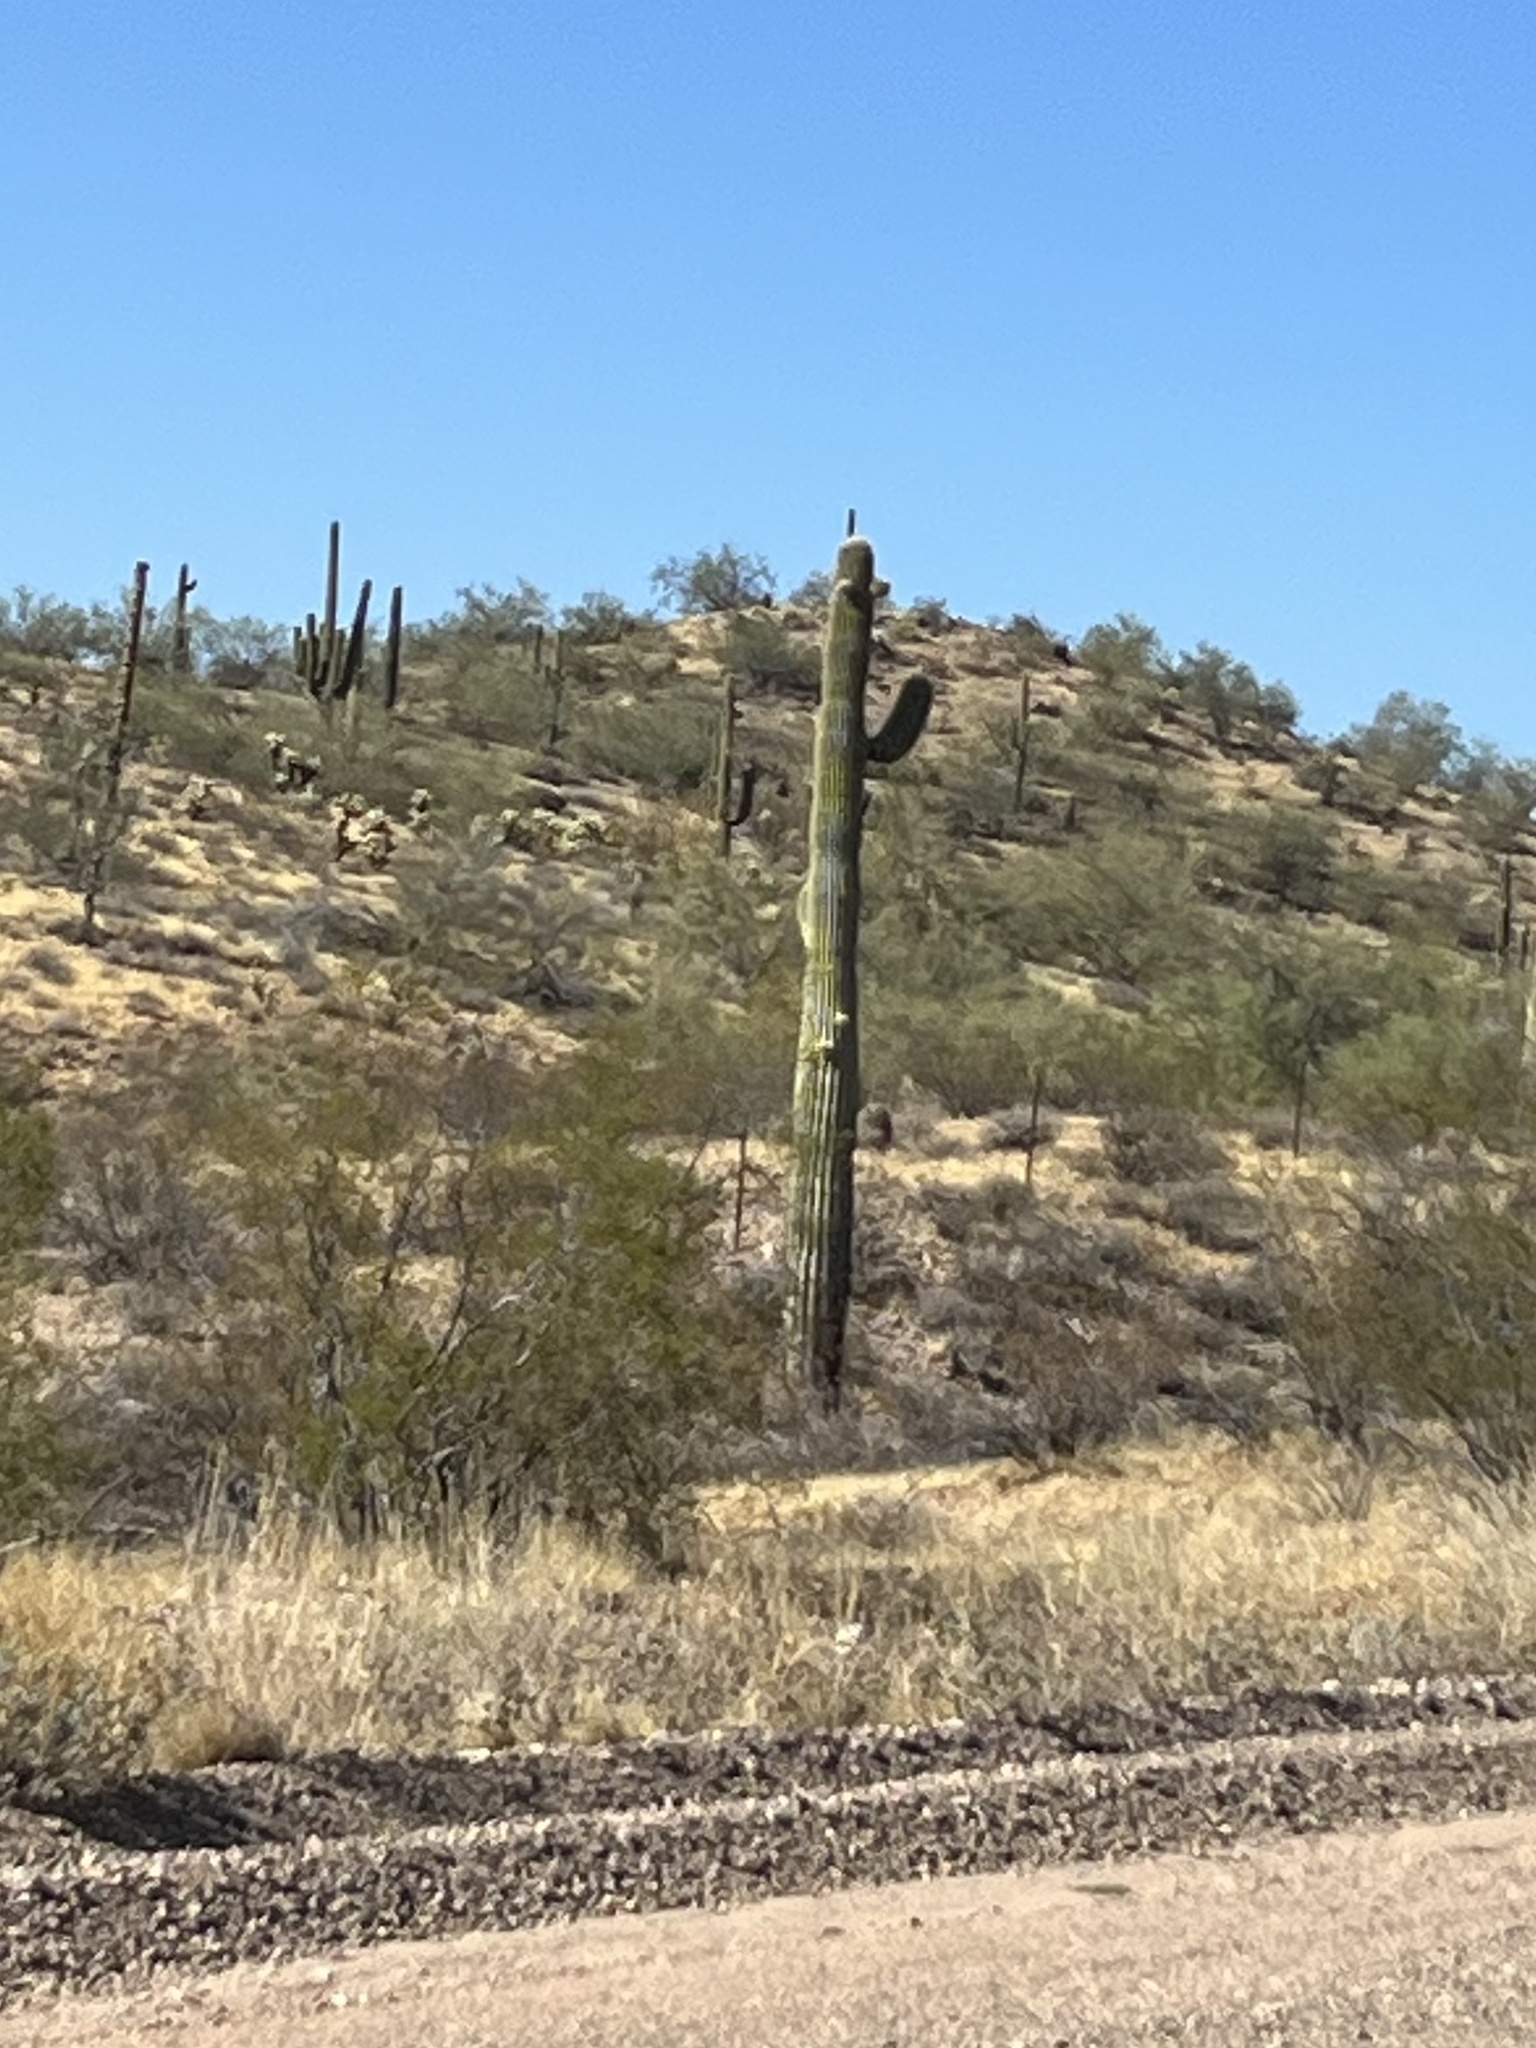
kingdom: Plantae
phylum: Tracheophyta
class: Magnoliopsida
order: Caryophyllales
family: Cactaceae
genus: Carnegiea
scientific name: Carnegiea gigantea
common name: Saguaro
